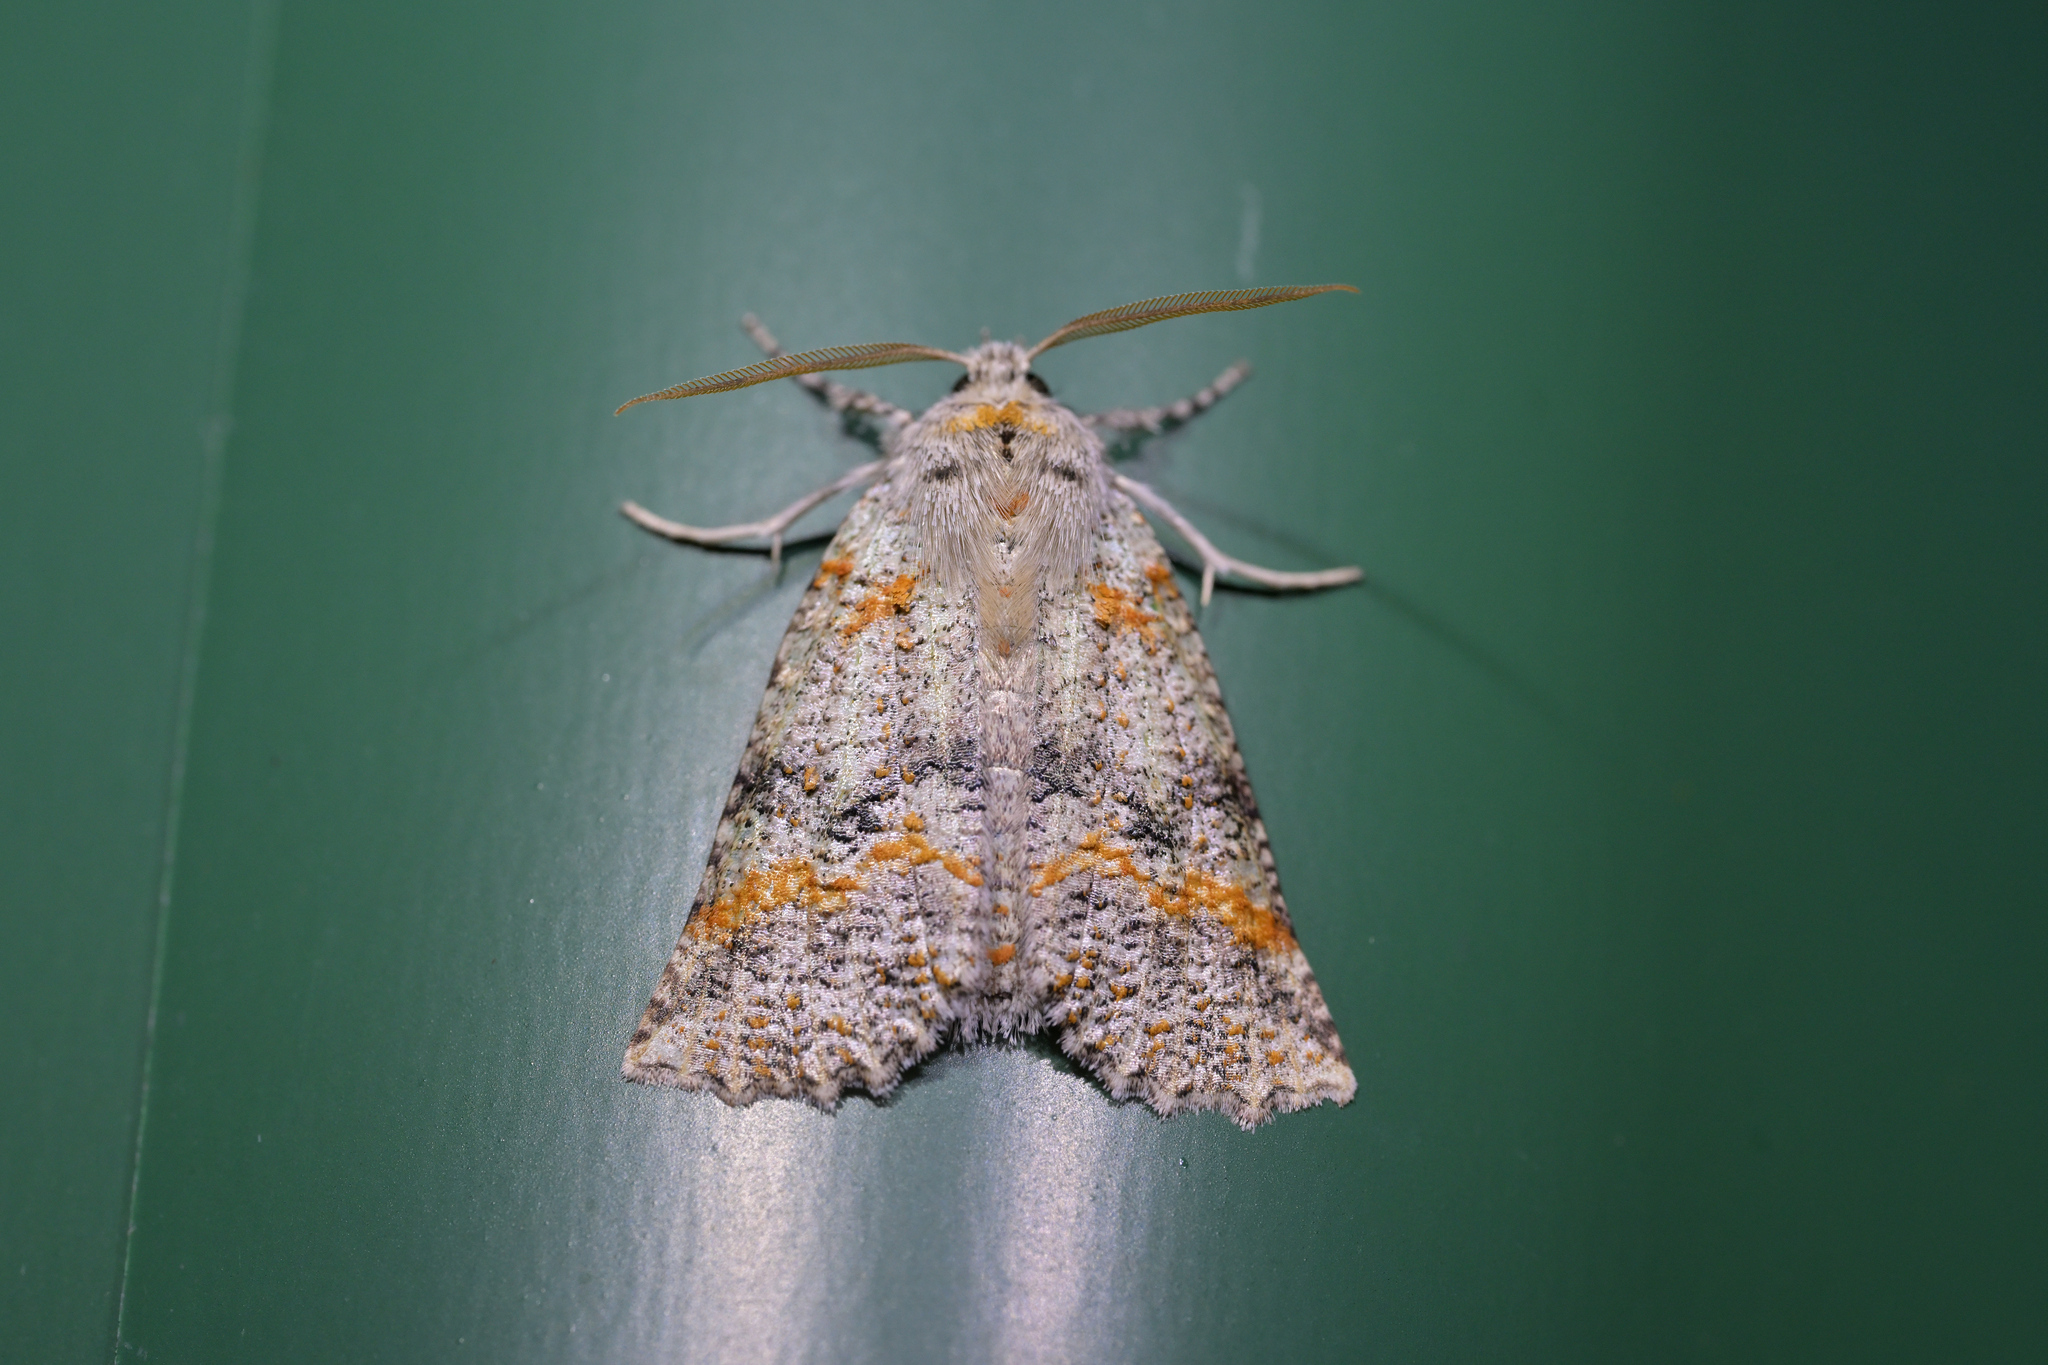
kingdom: Animalia
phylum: Arthropoda
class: Insecta
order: Lepidoptera
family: Geometridae
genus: Declana
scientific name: Declana floccosa
